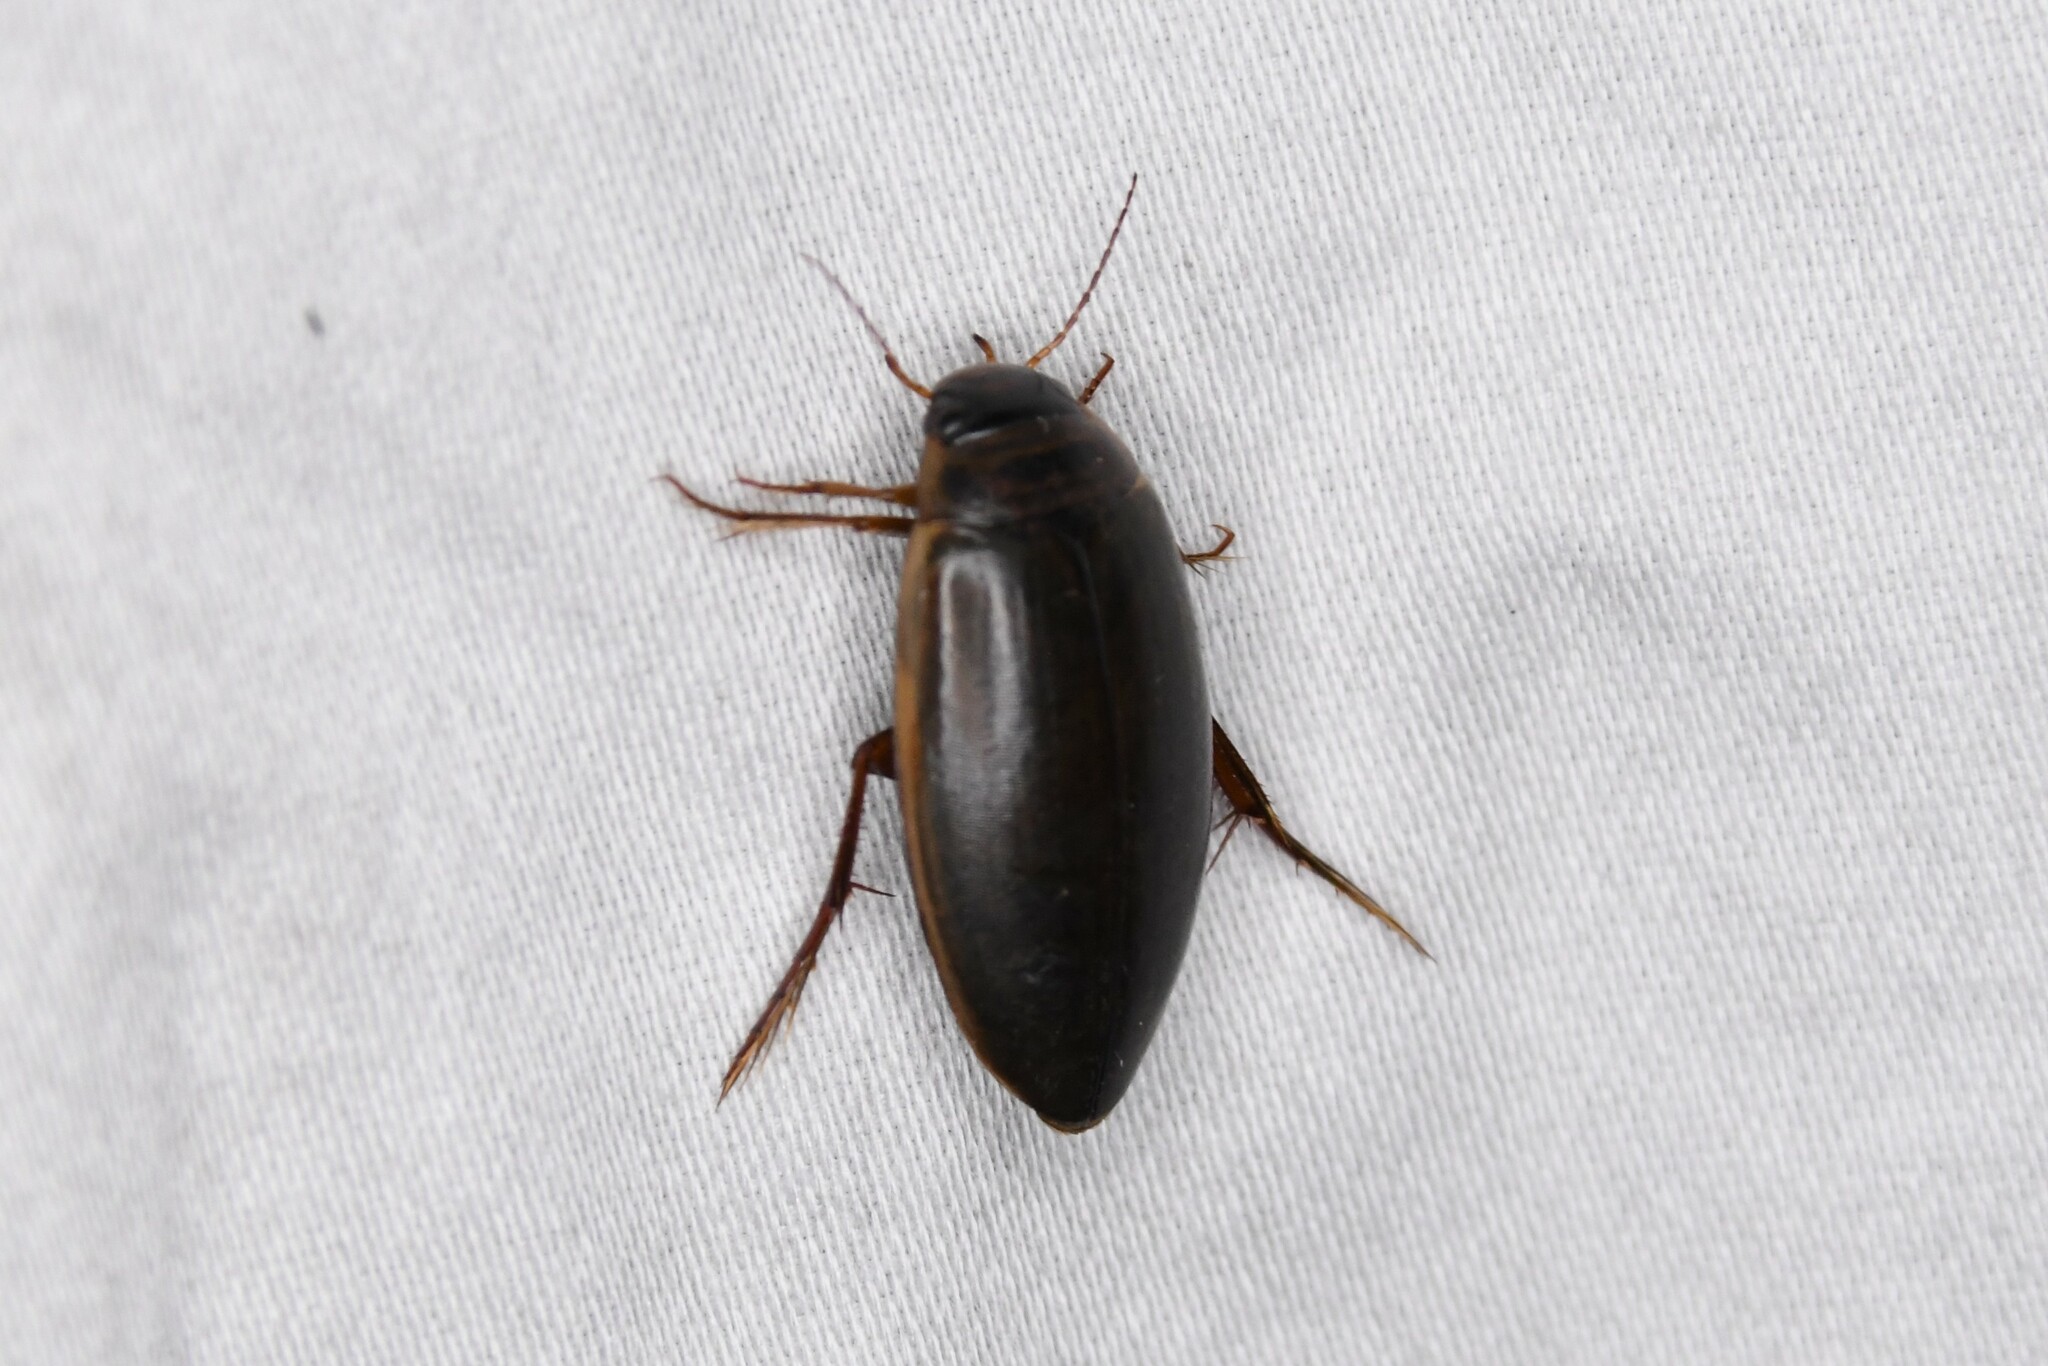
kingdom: Animalia
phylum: Arthropoda
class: Insecta
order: Coleoptera
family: Dytiscidae
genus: Colymbetes
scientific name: Colymbetes sculptilis
